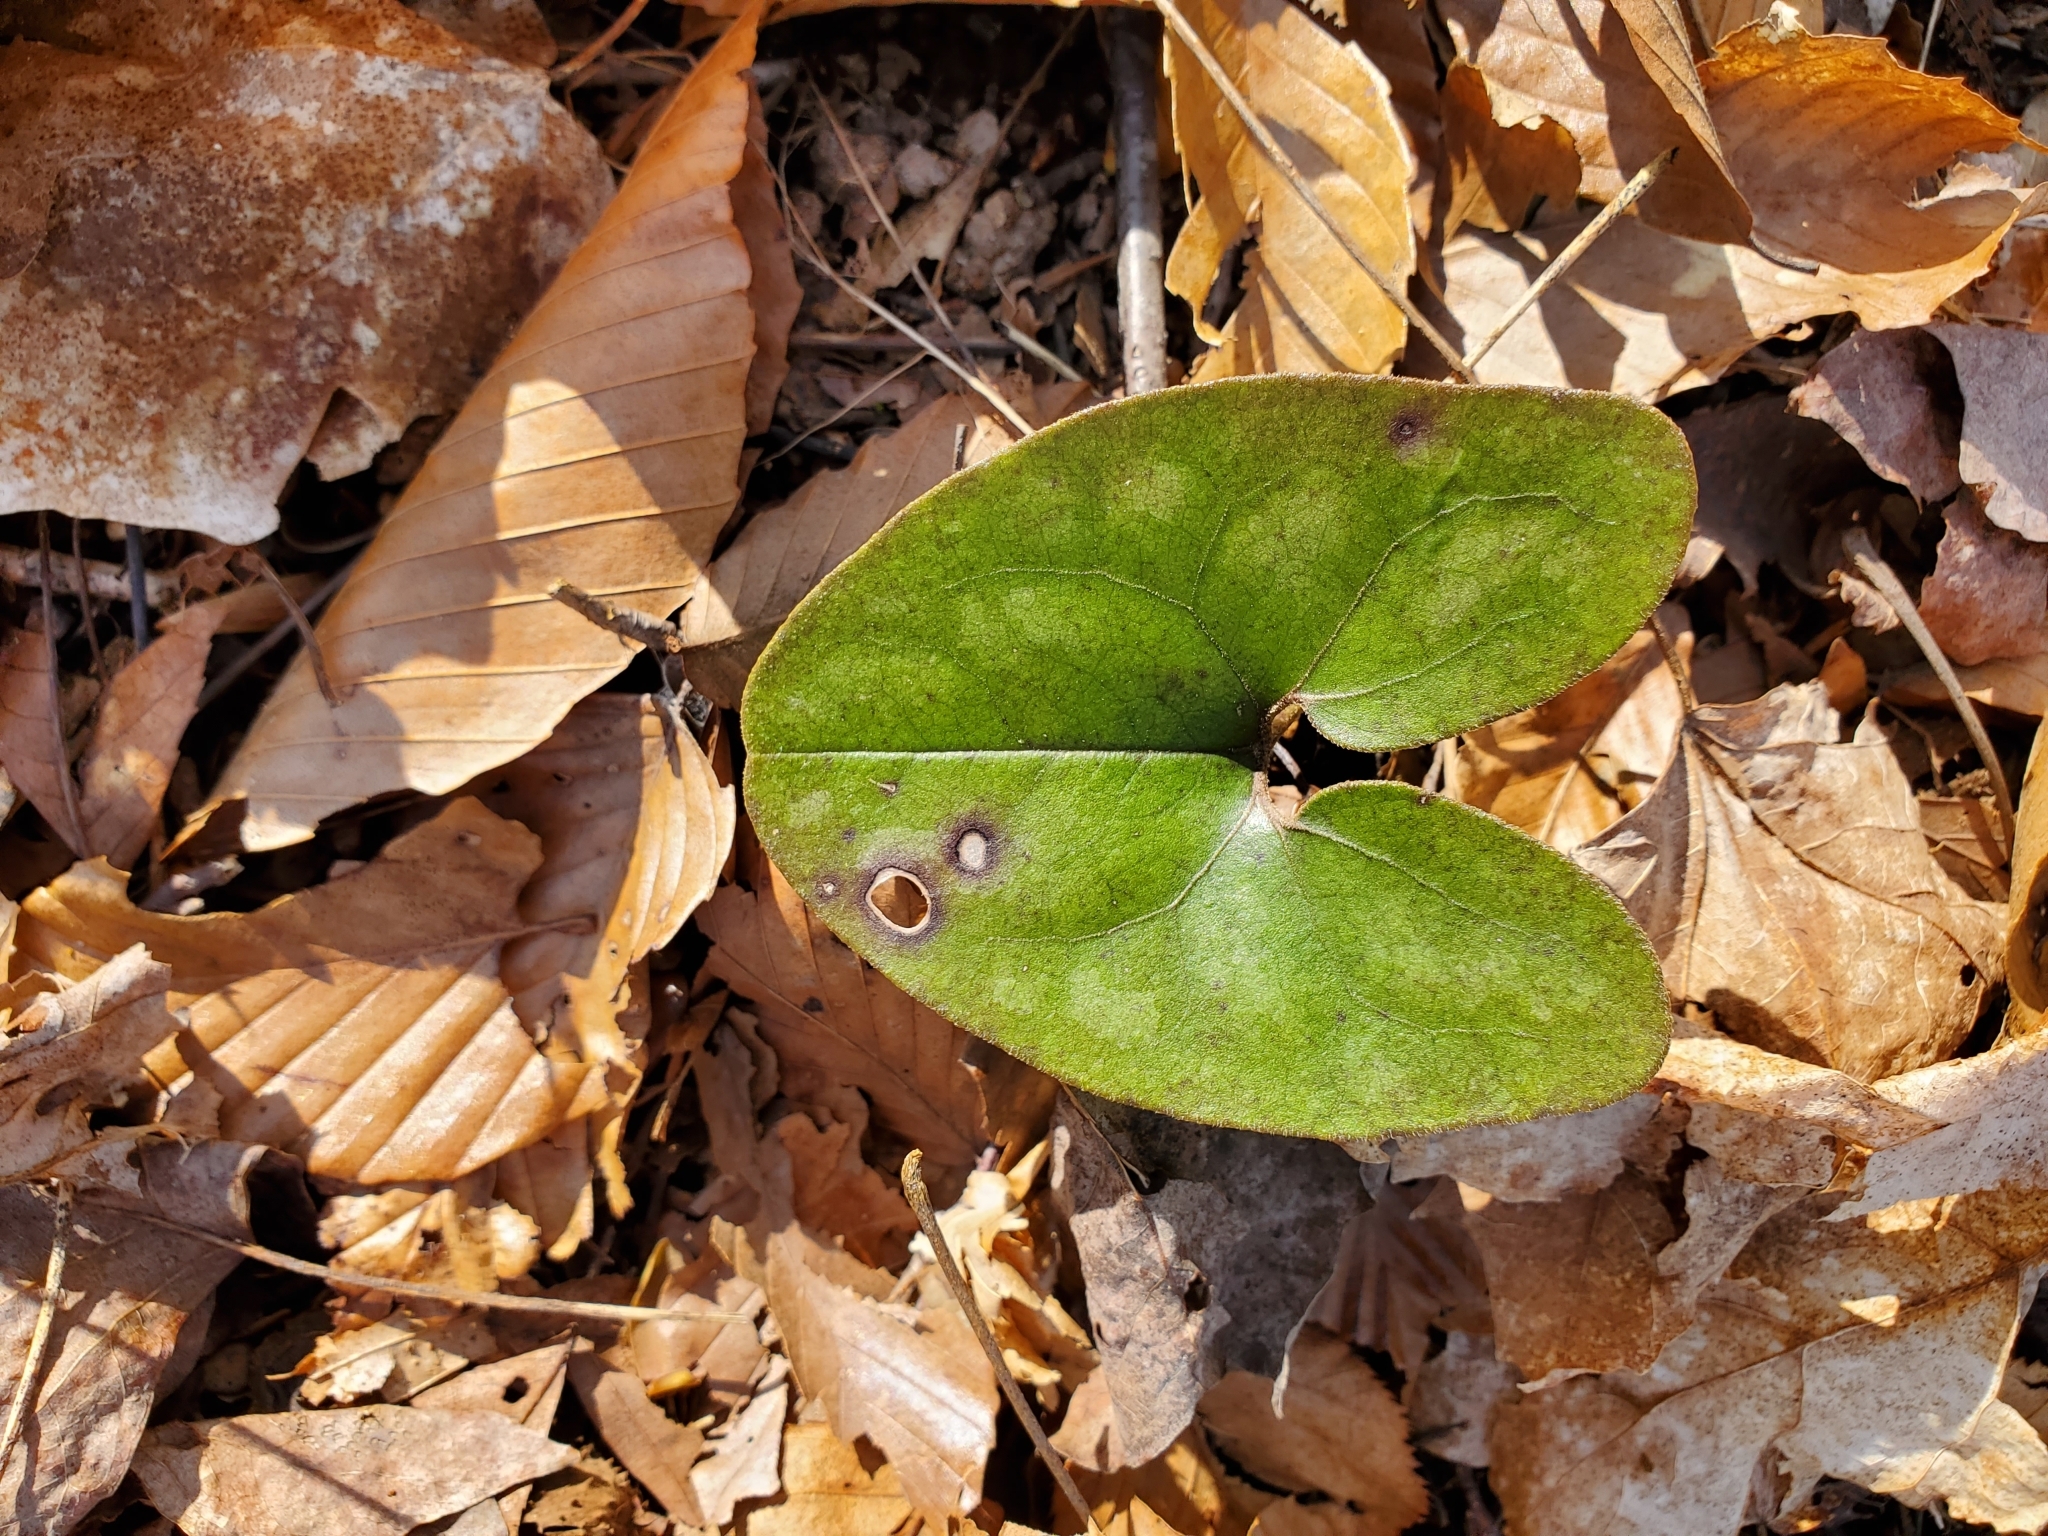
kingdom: Plantae
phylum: Tracheophyta
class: Magnoliopsida
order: Piperales
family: Aristolochiaceae
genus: Hexastylis
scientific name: Hexastylis arifolia
